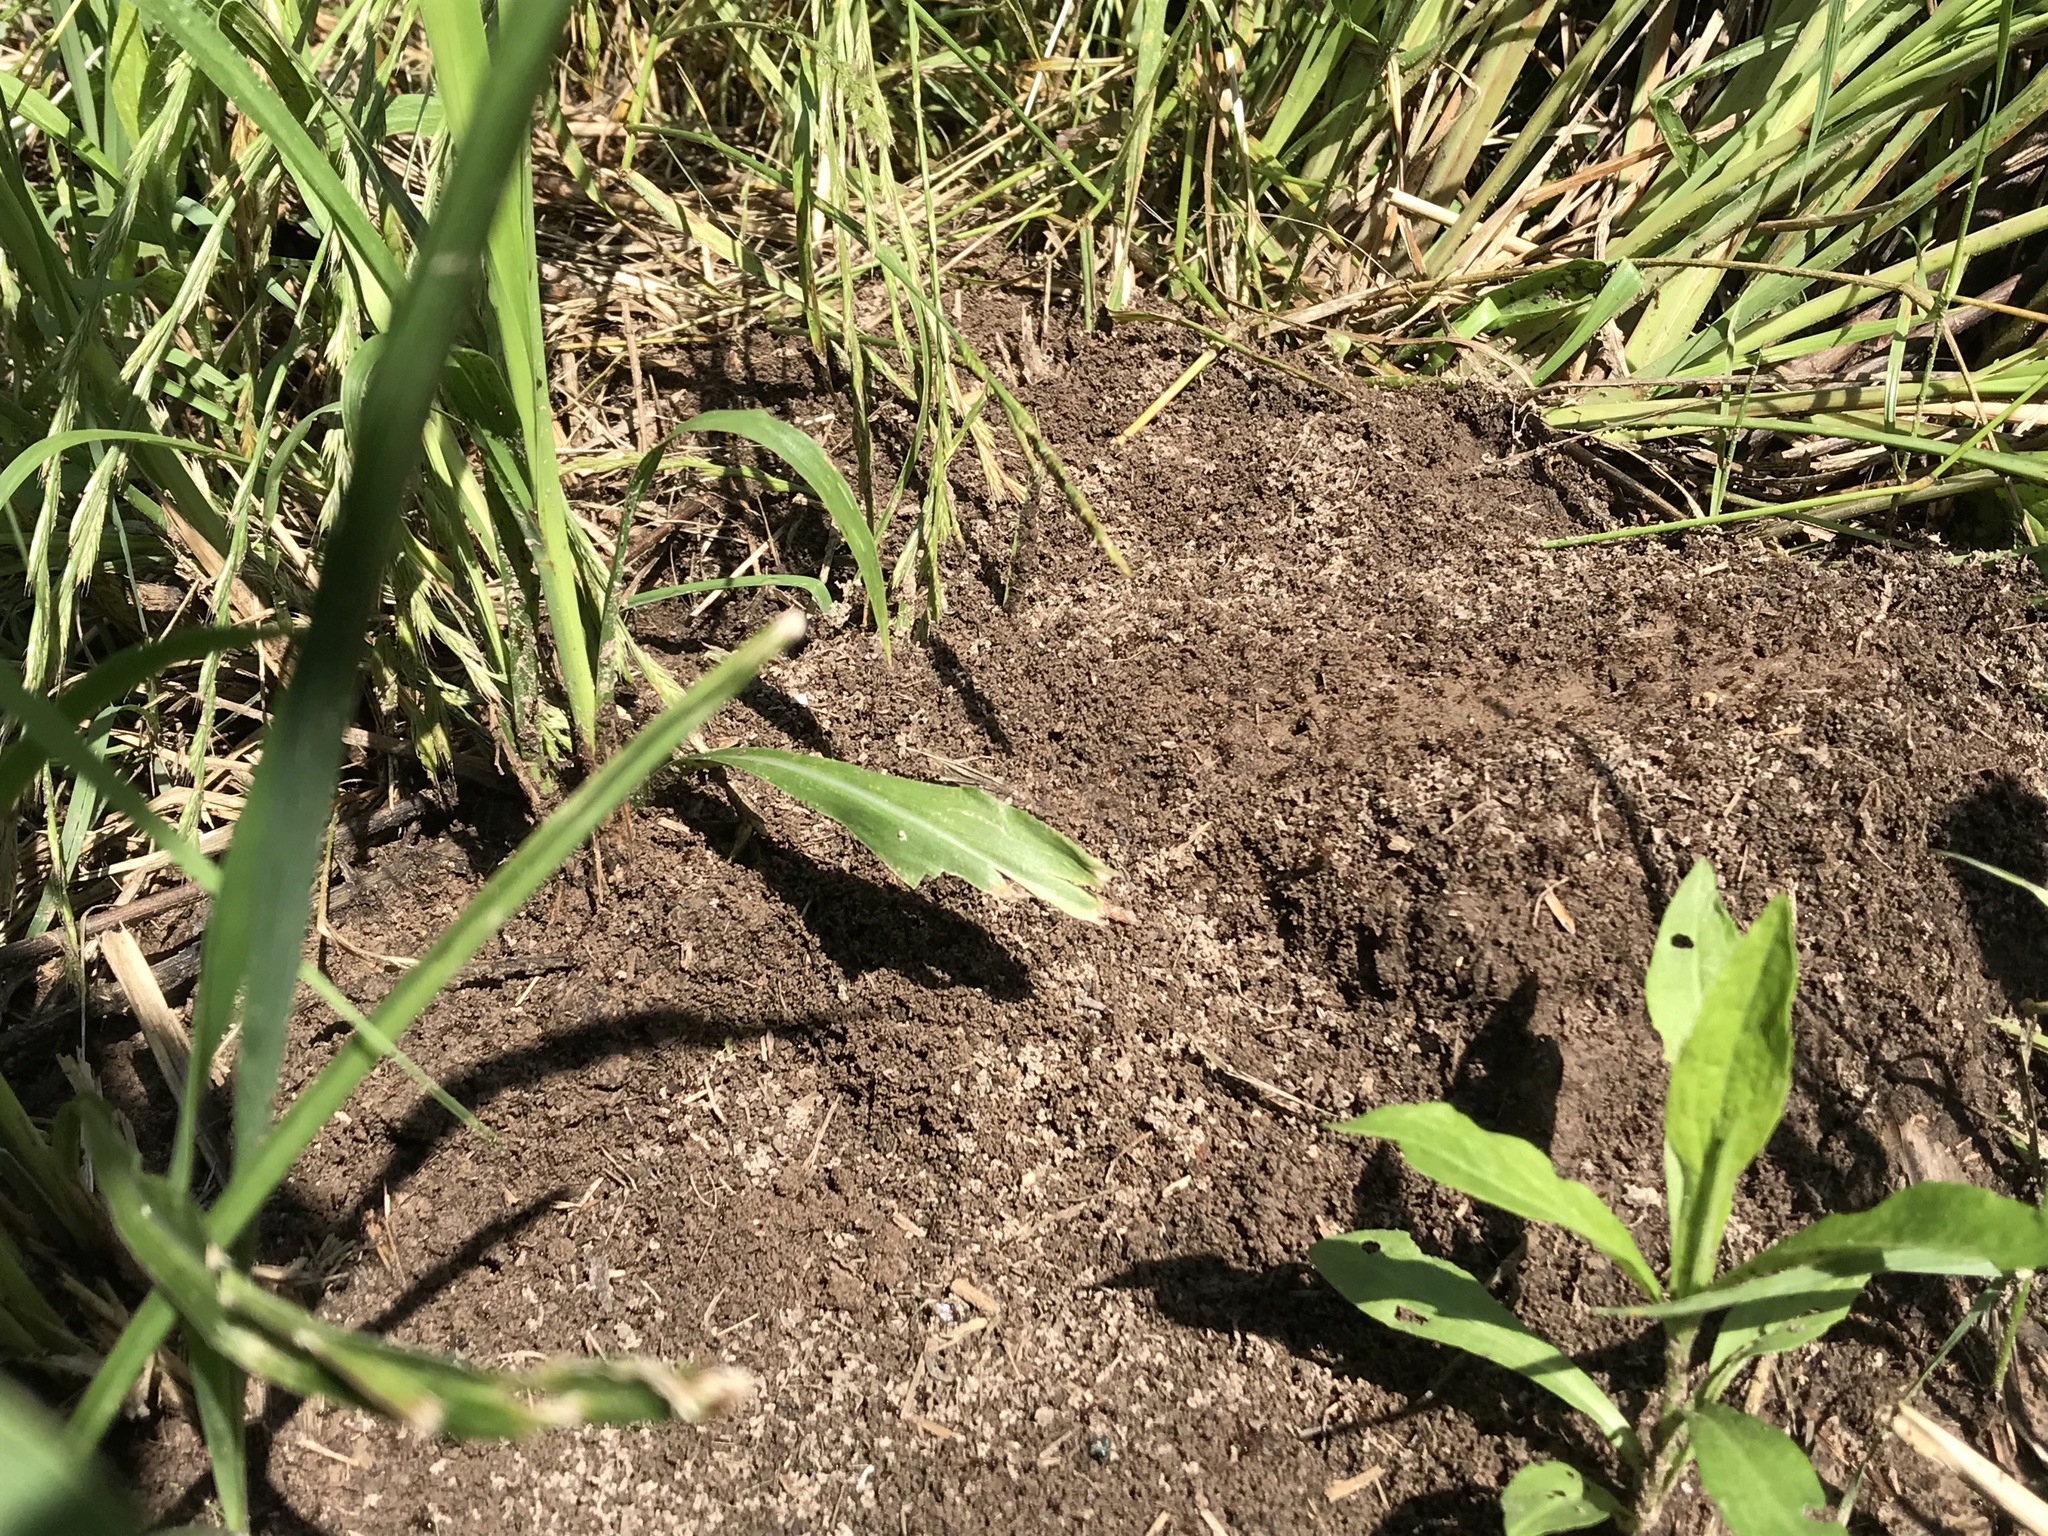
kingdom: Animalia
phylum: Arthropoda
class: Insecta
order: Hymenoptera
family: Formicidae
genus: Solenopsis
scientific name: Solenopsis invicta
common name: Red imported fire ant
